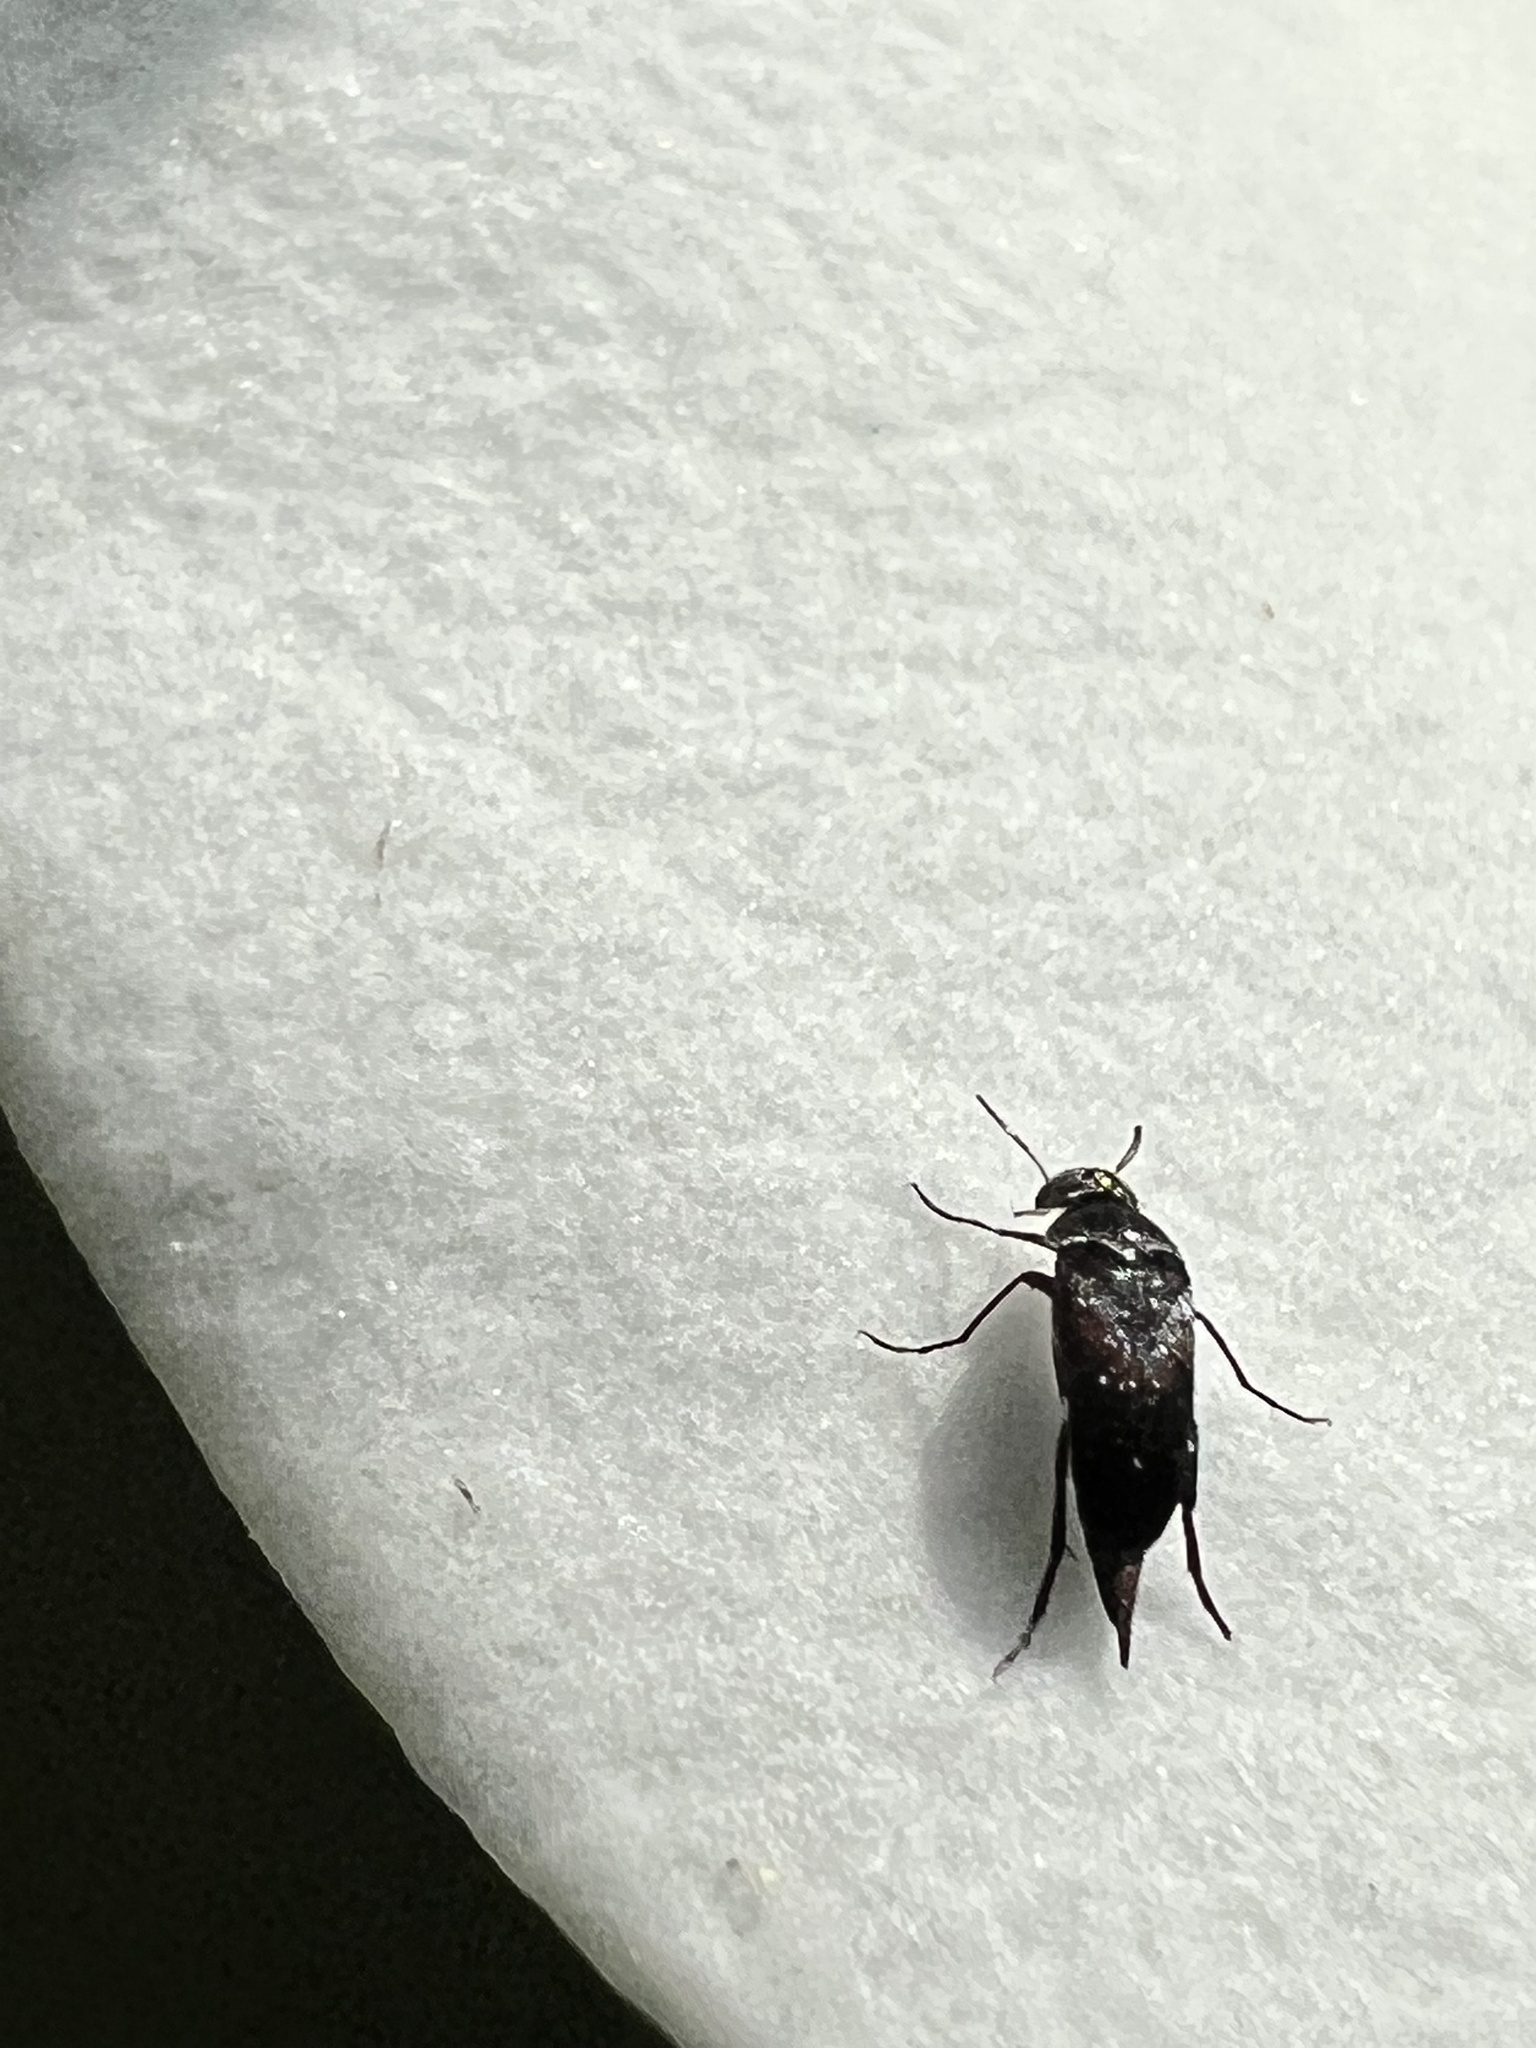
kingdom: Animalia
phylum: Arthropoda
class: Insecta
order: Coleoptera
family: Mordellidae
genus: Mordella
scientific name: Mordella marginata
